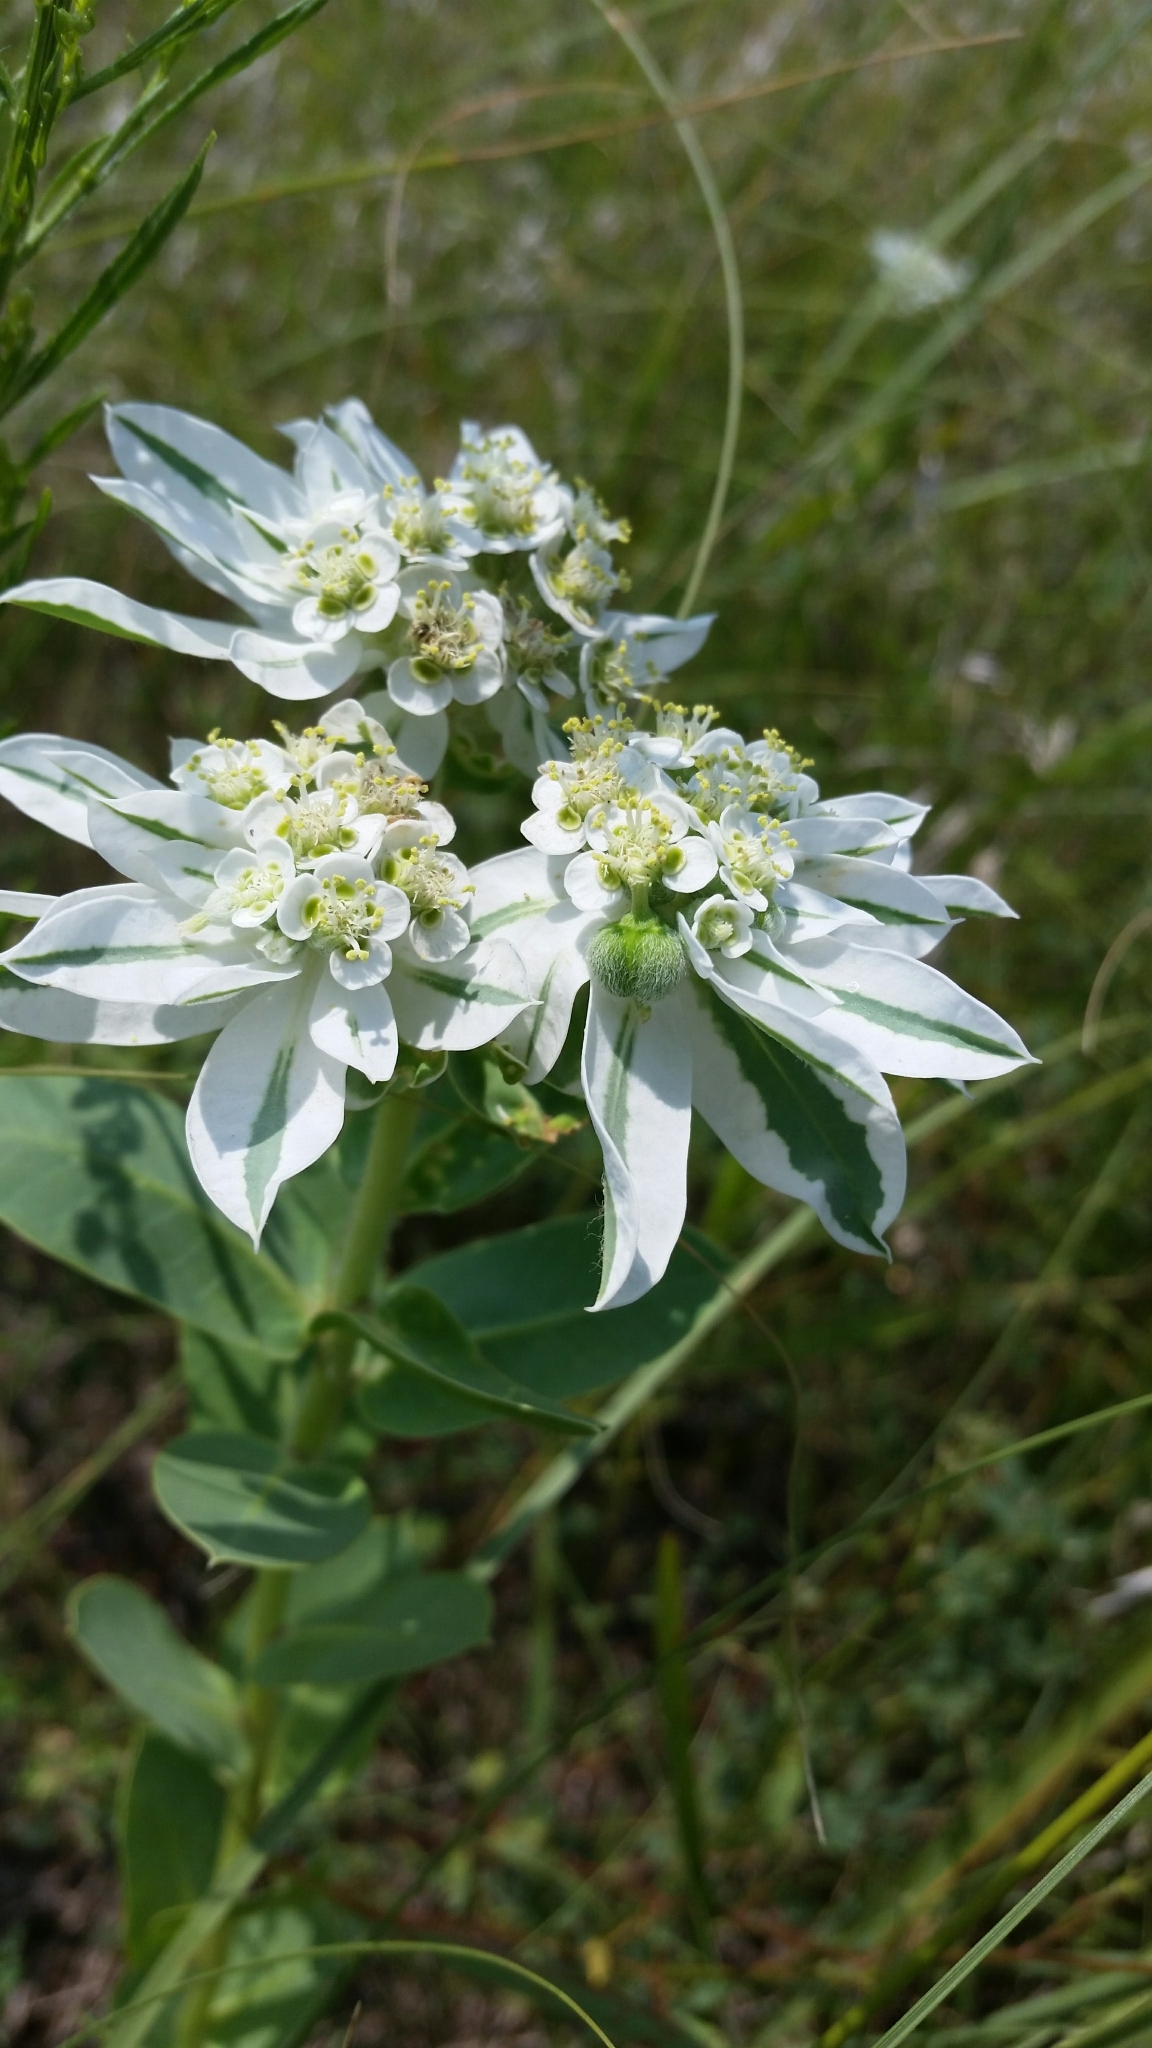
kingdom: Plantae
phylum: Tracheophyta
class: Magnoliopsida
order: Malpighiales
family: Euphorbiaceae
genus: Euphorbia
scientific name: Euphorbia marginata
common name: Ghostweed
